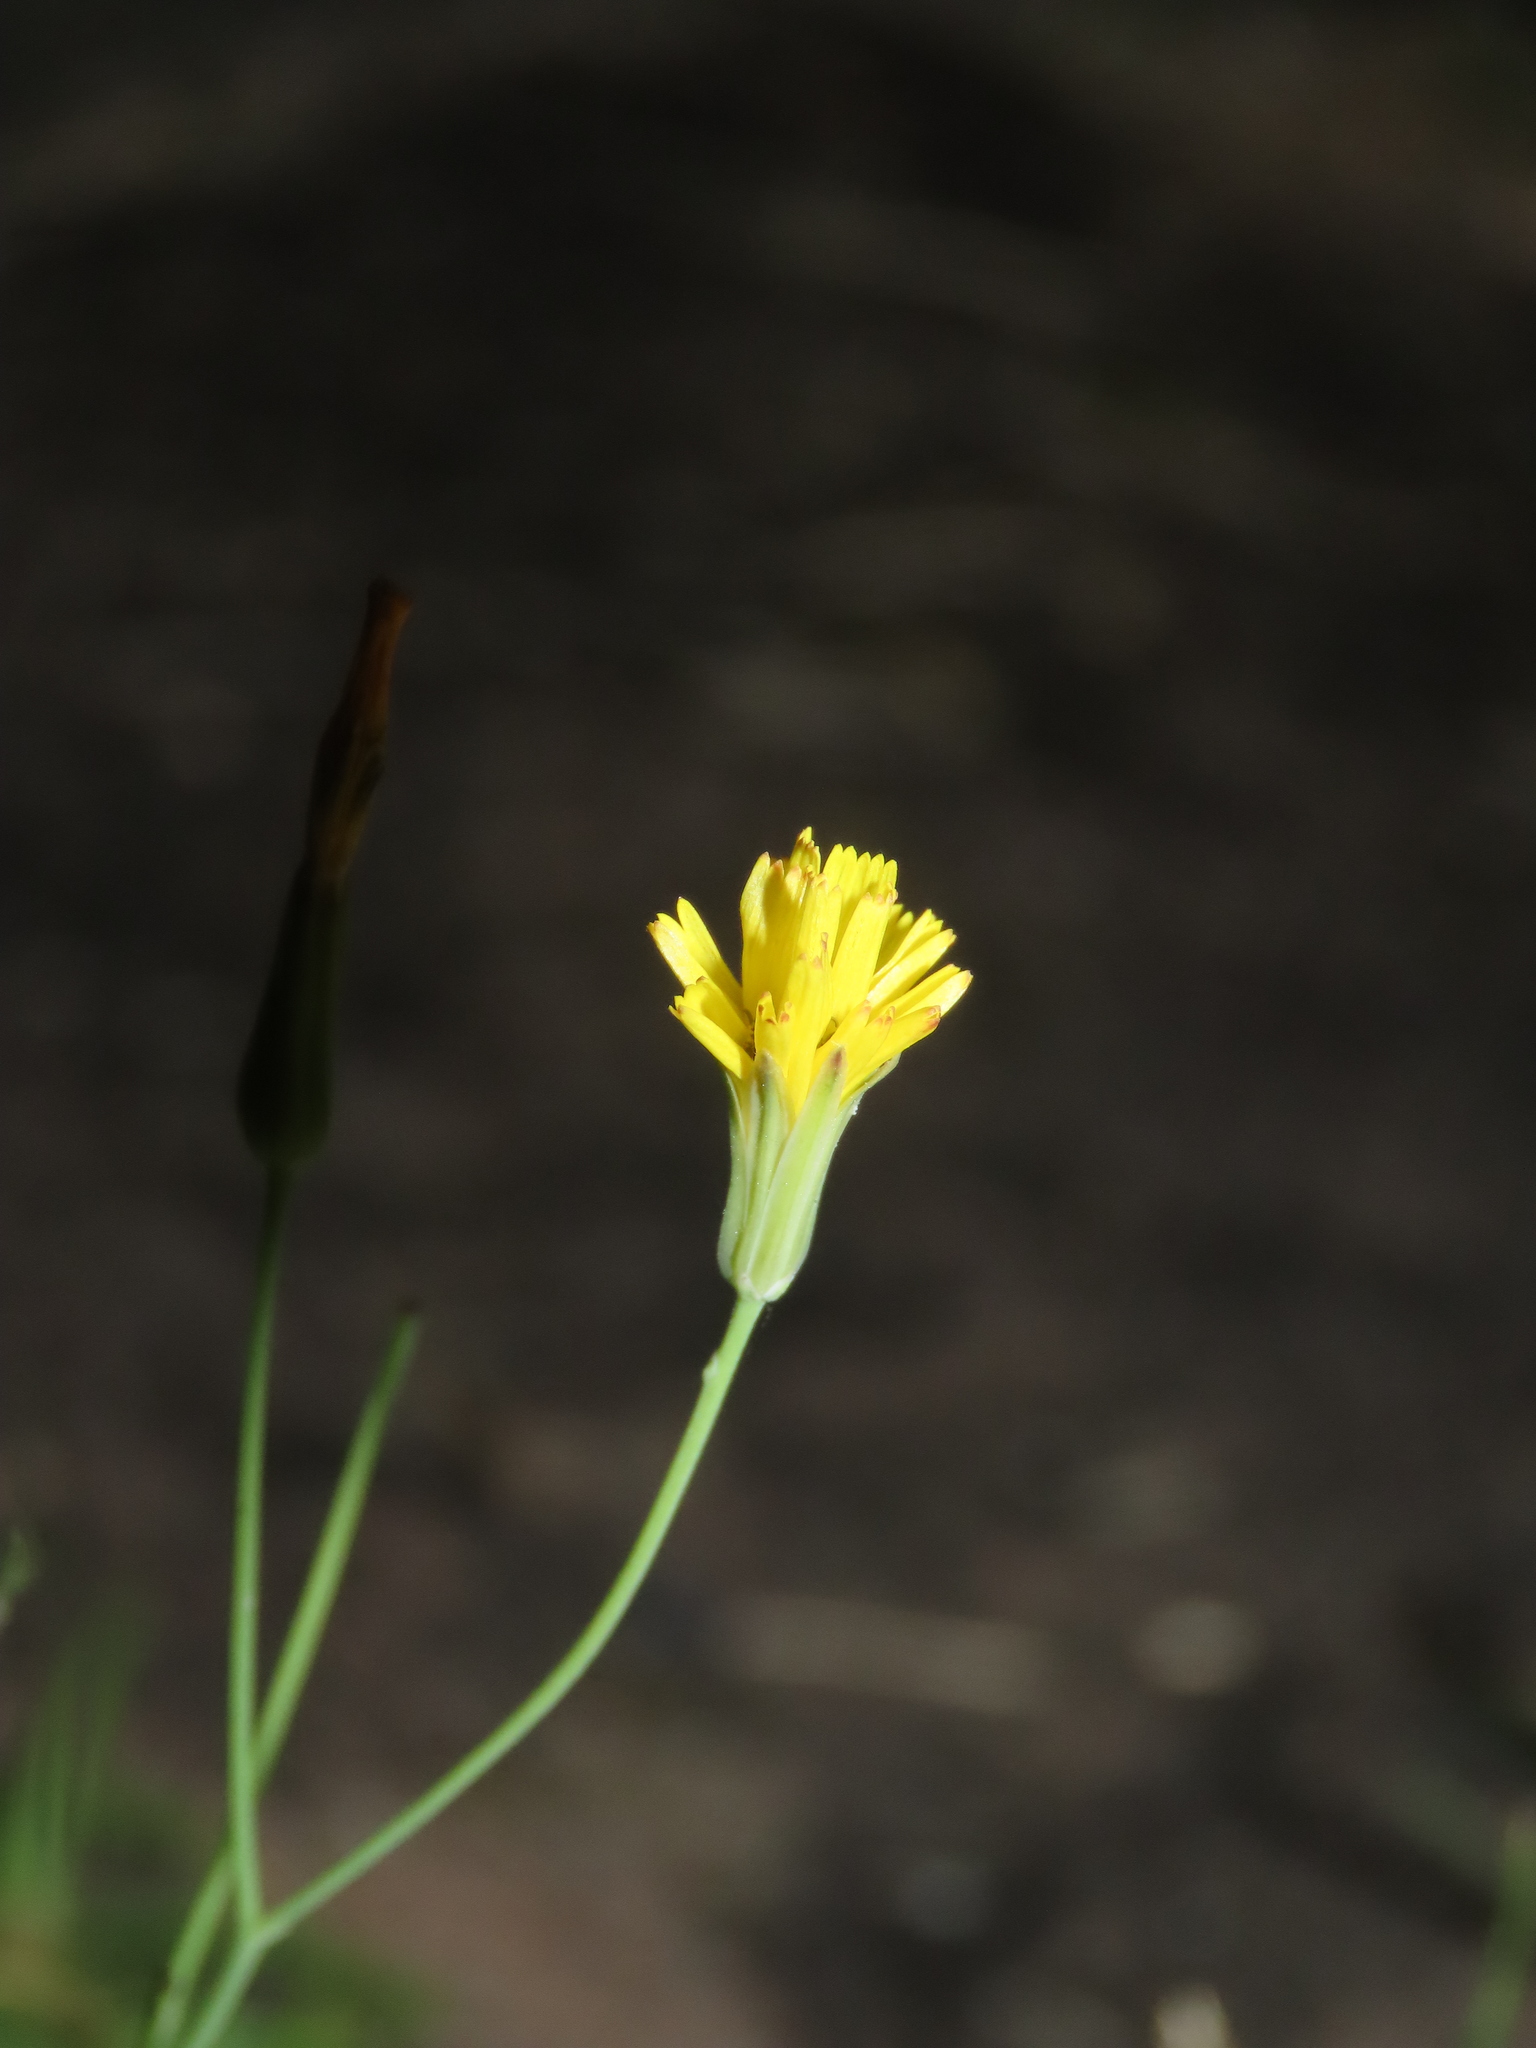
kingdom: Plantae
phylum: Tracheophyta
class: Magnoliopsida
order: Asterales
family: Asteraceae
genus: Ixeris
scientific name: Ixeris chinensis
